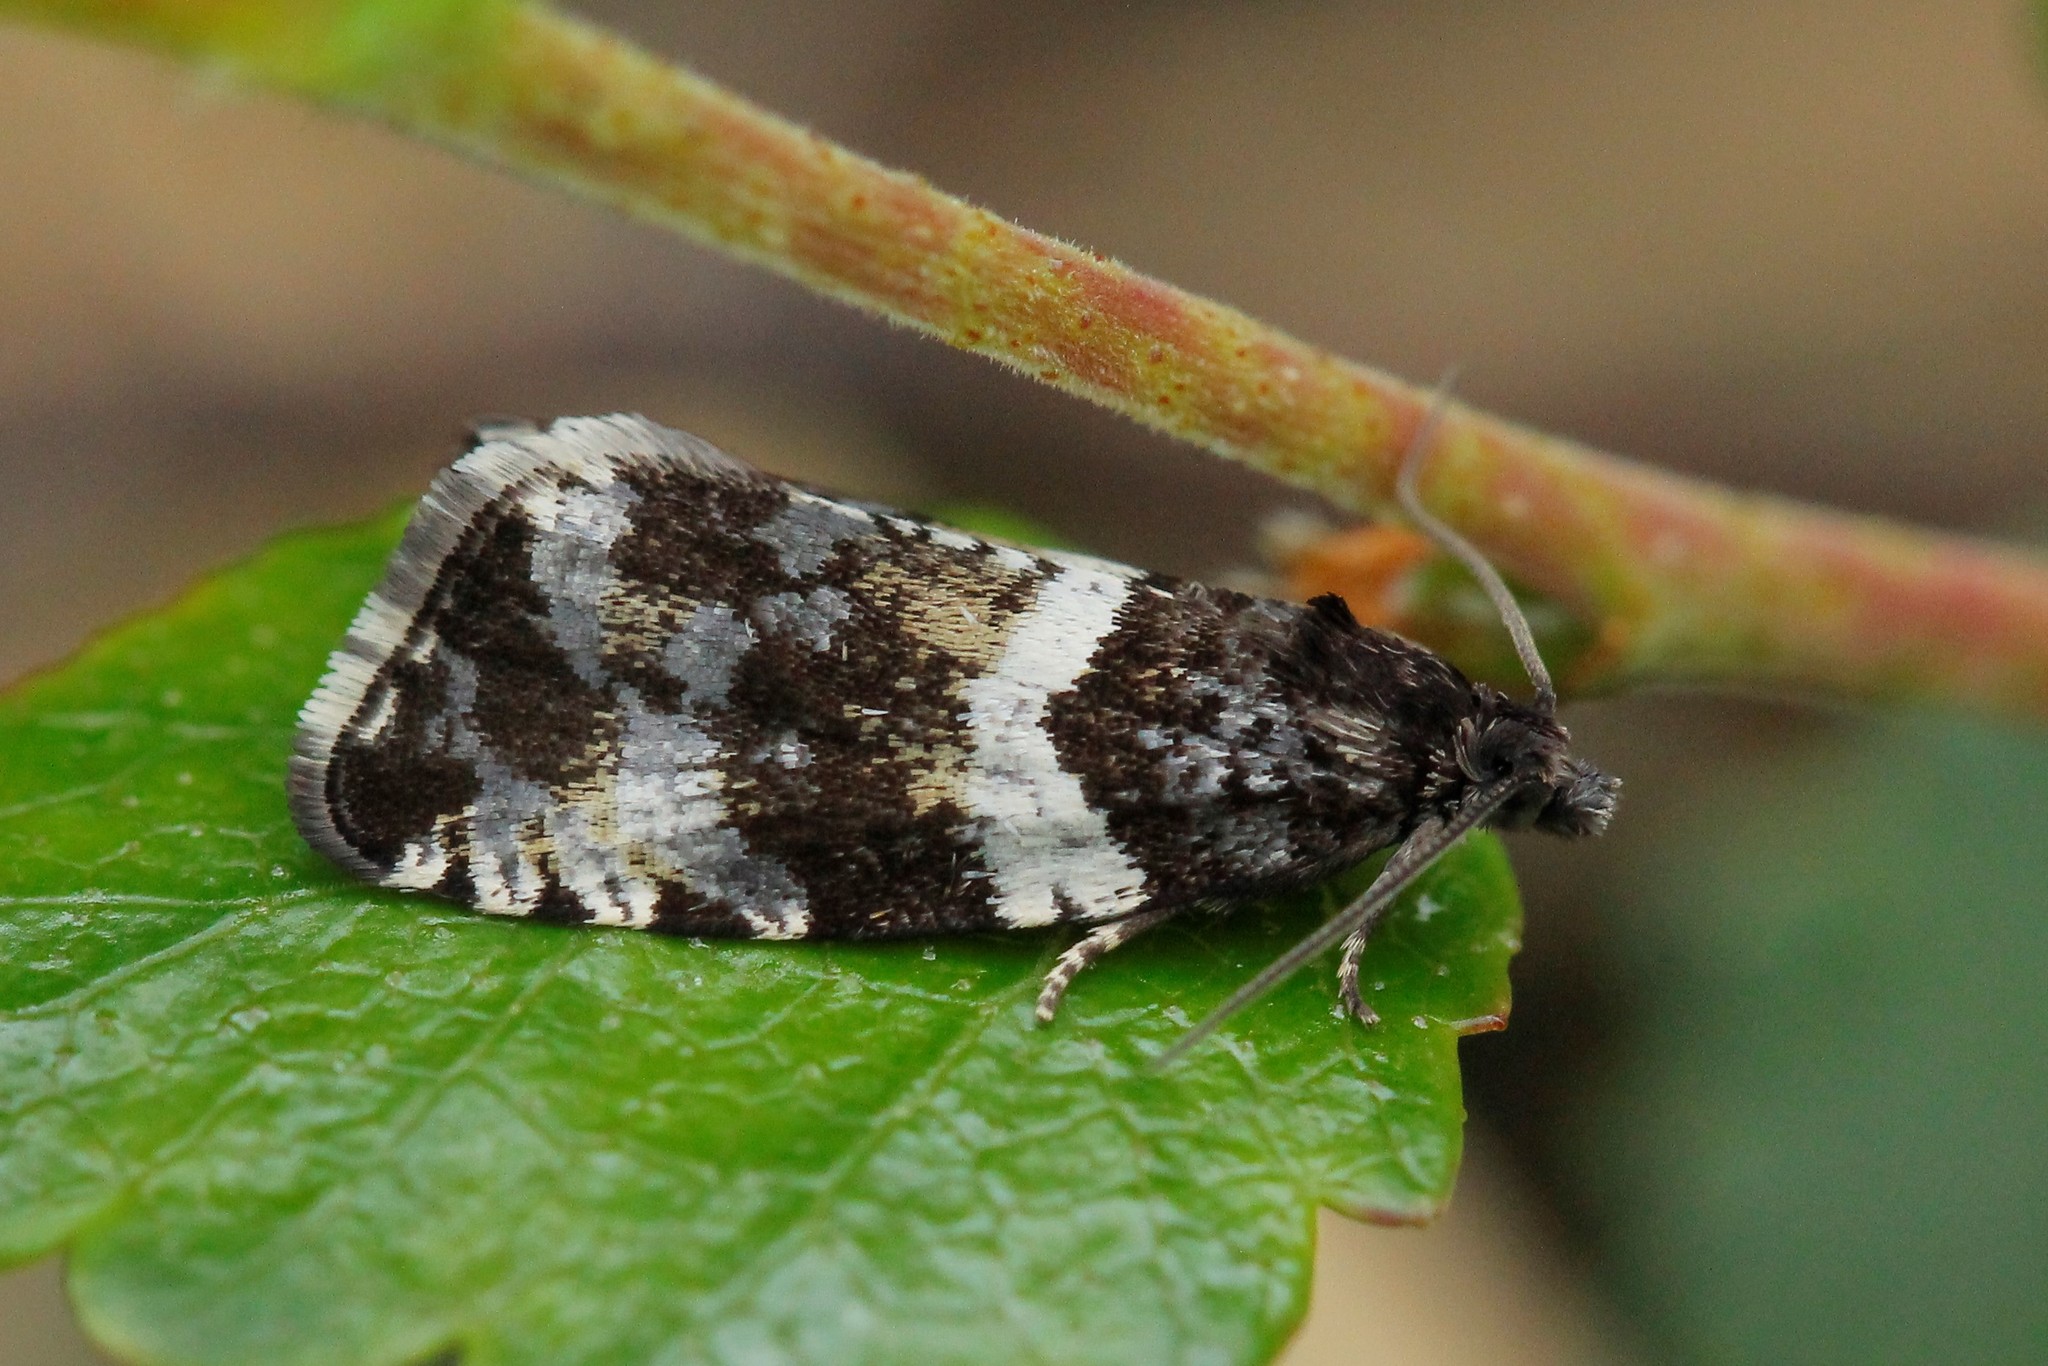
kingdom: Animalia
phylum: Arthropoda
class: Insecta
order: Lepidoptera
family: Tortricidae
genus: Argyroploce
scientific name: Argyroploce bipunctana
